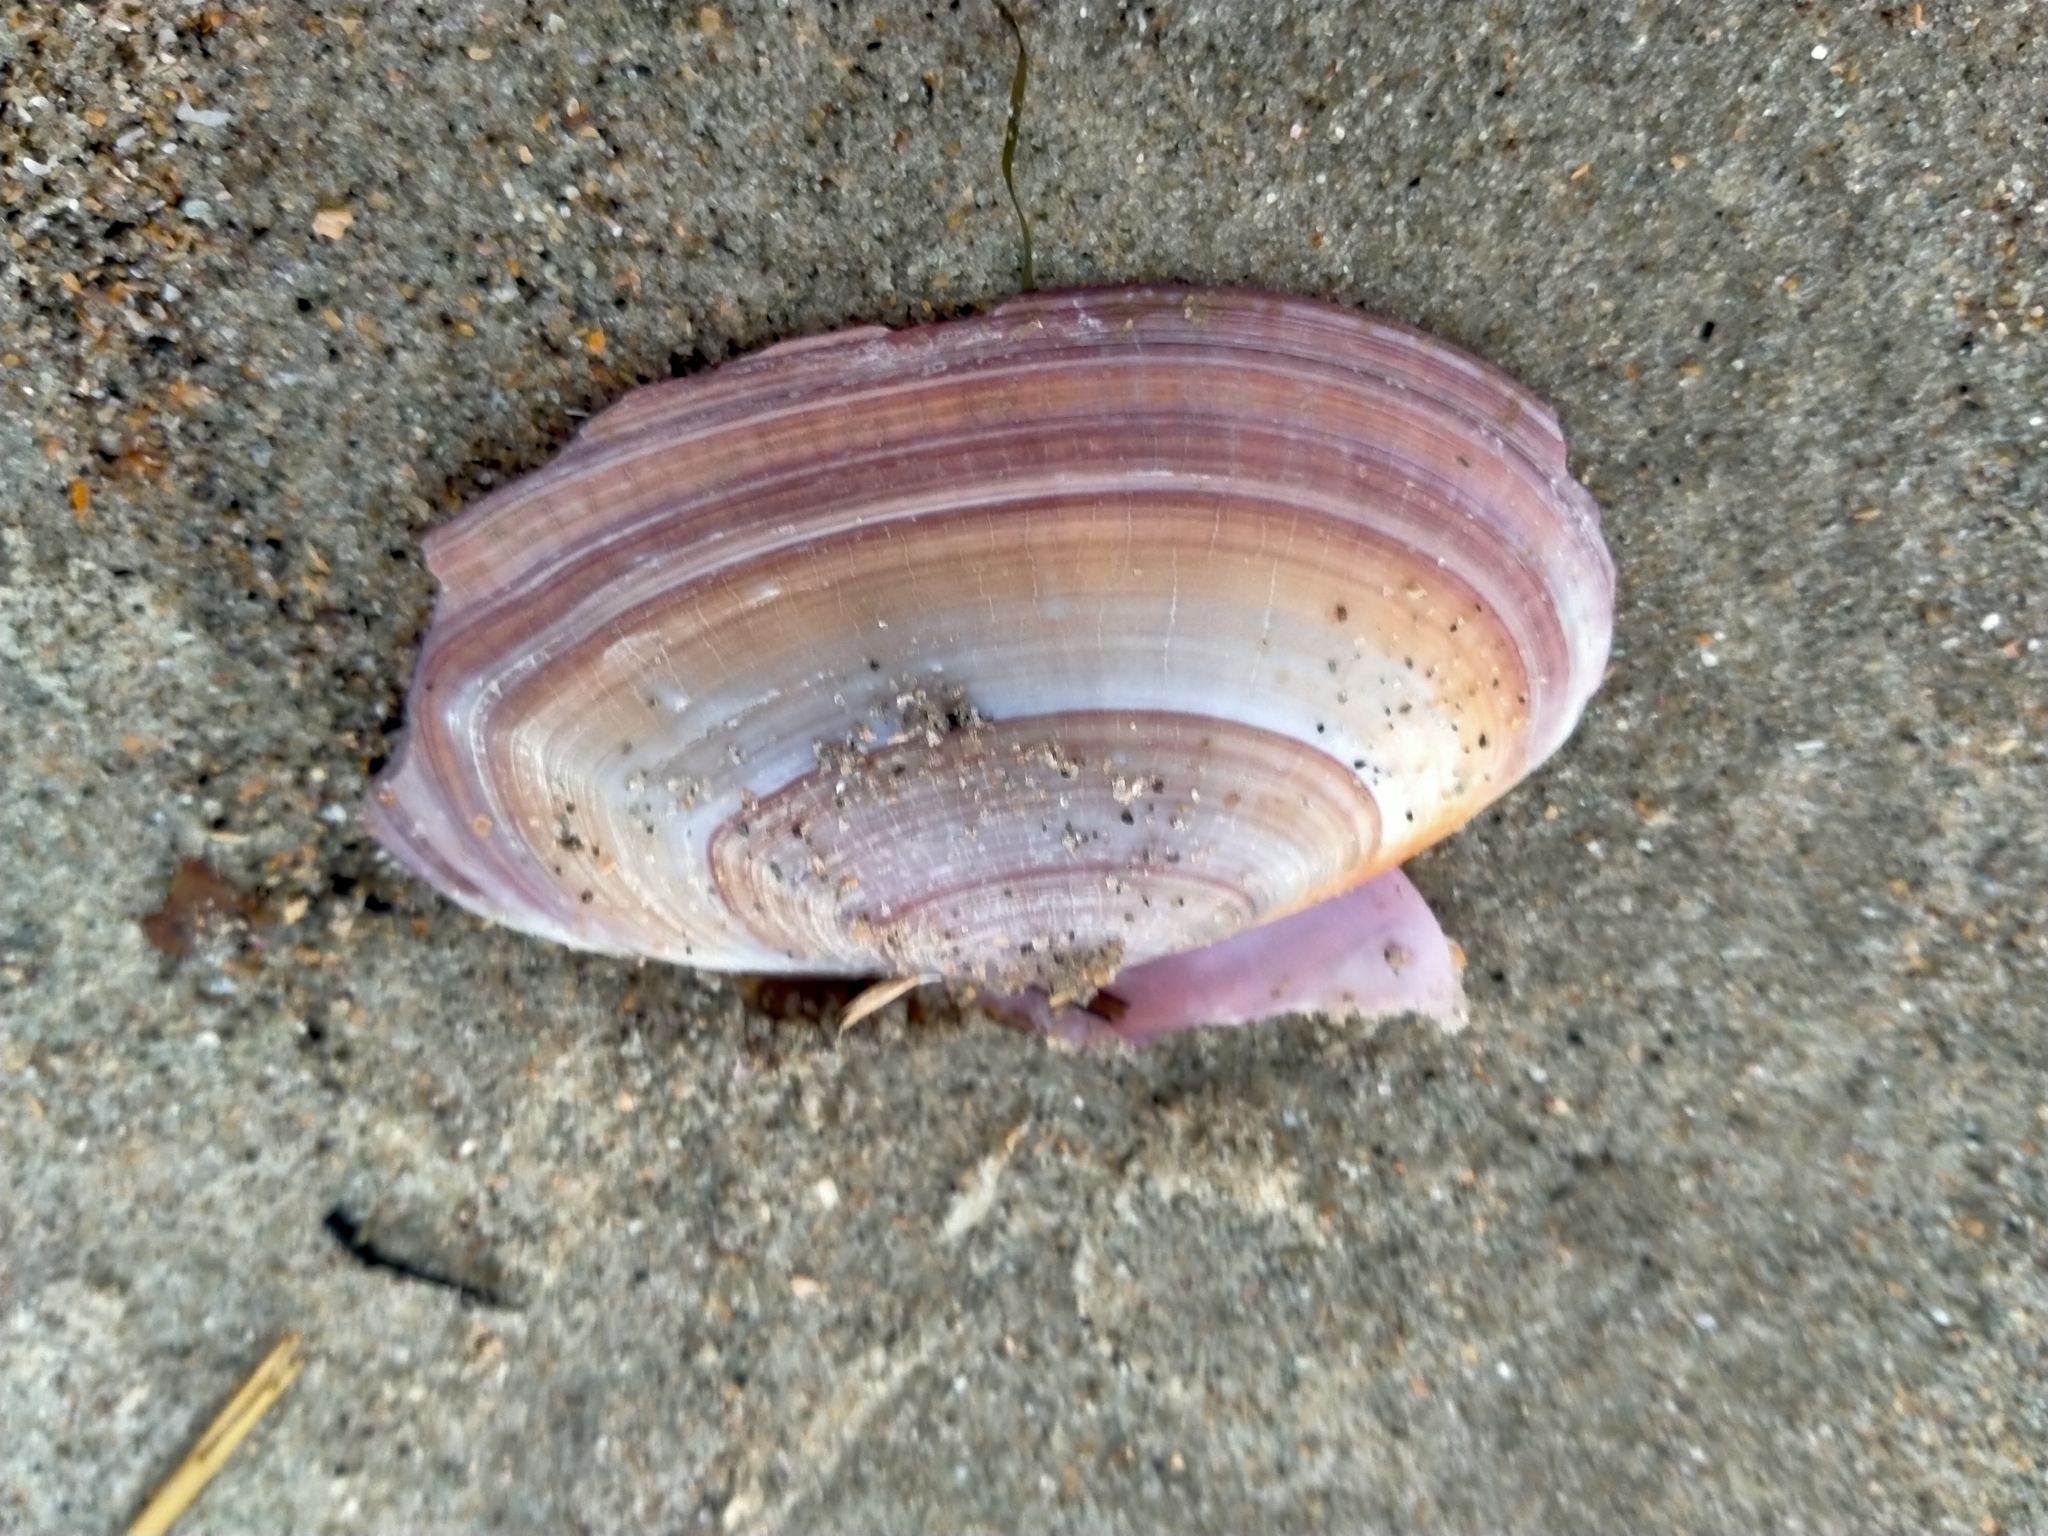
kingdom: Animalia
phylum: Mollusca
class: Bivalvia
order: Cardiida
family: Psammobiidae
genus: Gari
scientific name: Gari lineolata
